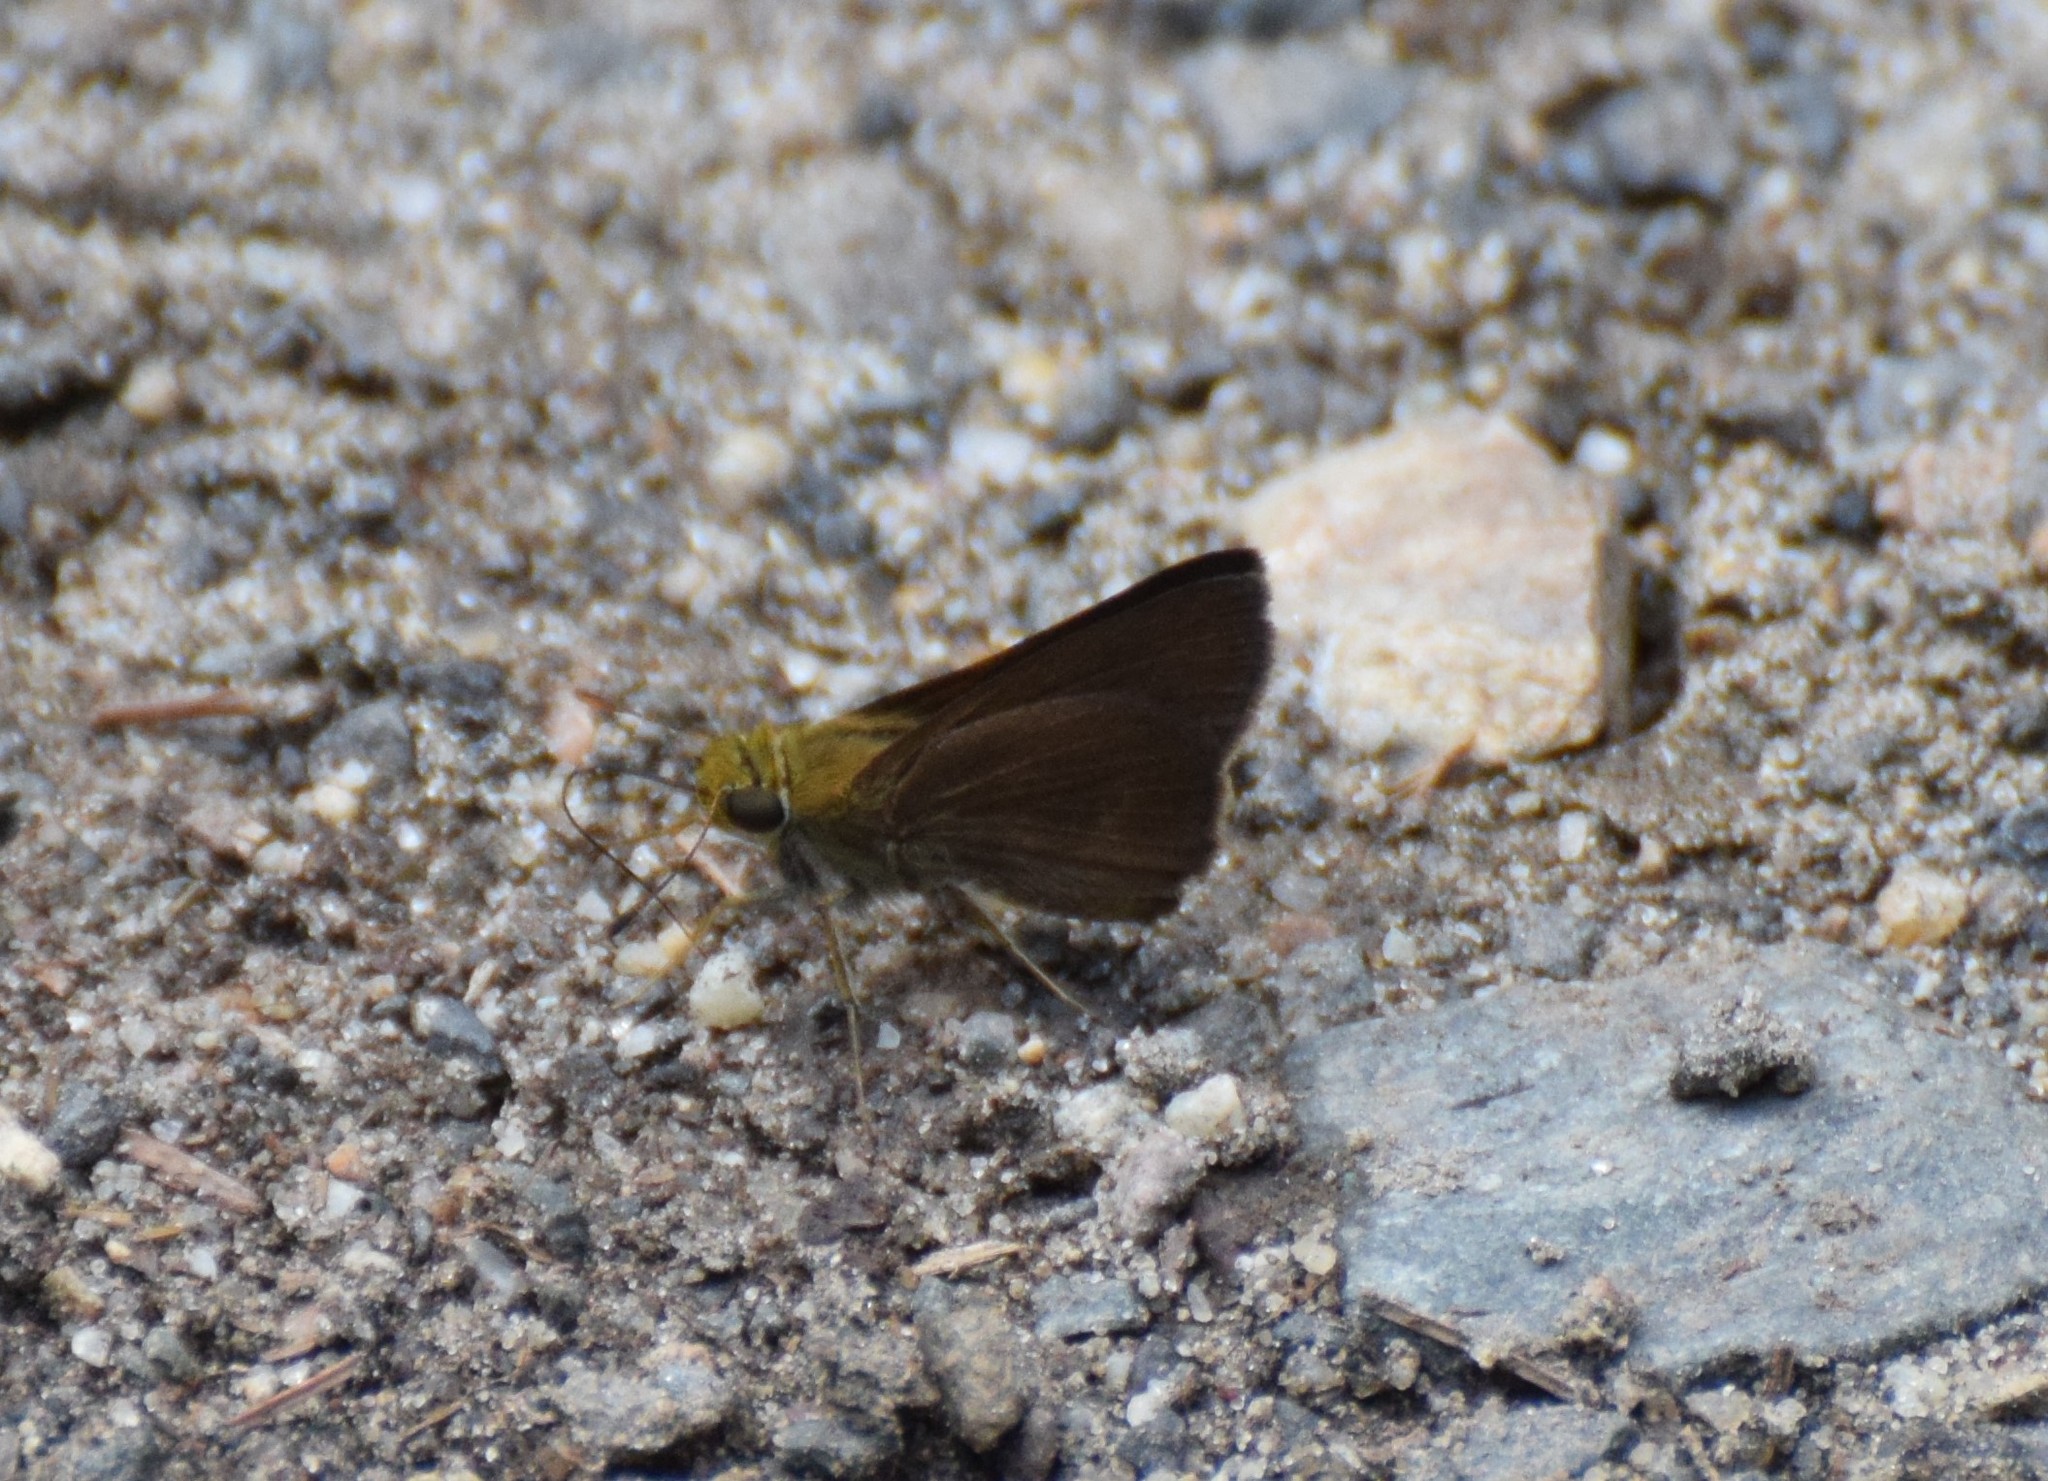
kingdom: Animalia
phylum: Arthropoda
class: Insecta
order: Lepidoptera
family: Hesperiidae
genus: Euphyes
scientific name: Euphyes vestris
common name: Dun skipper
